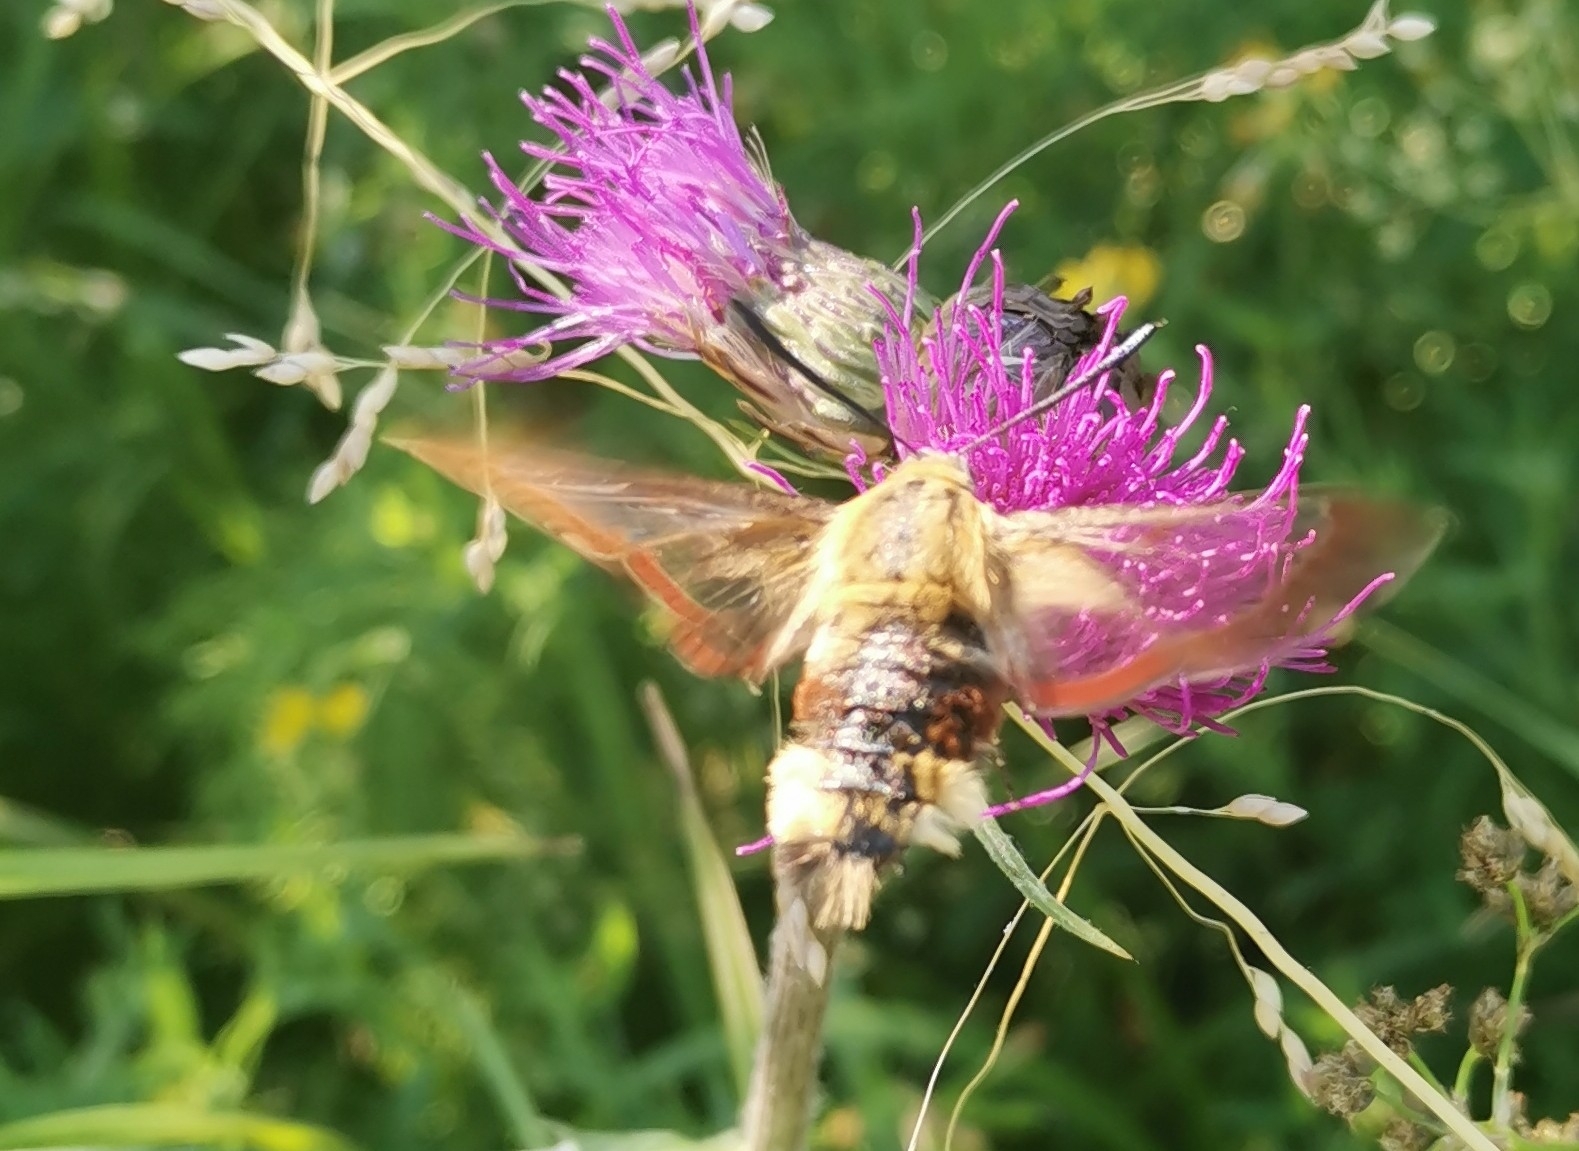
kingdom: Animalia
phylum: Arthropoda
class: Insecta
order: Lepidoptera
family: Sphingidae
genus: Hemaris
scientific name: Hemaris fuciformis
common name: Broad-bordered bee hawk-moth
